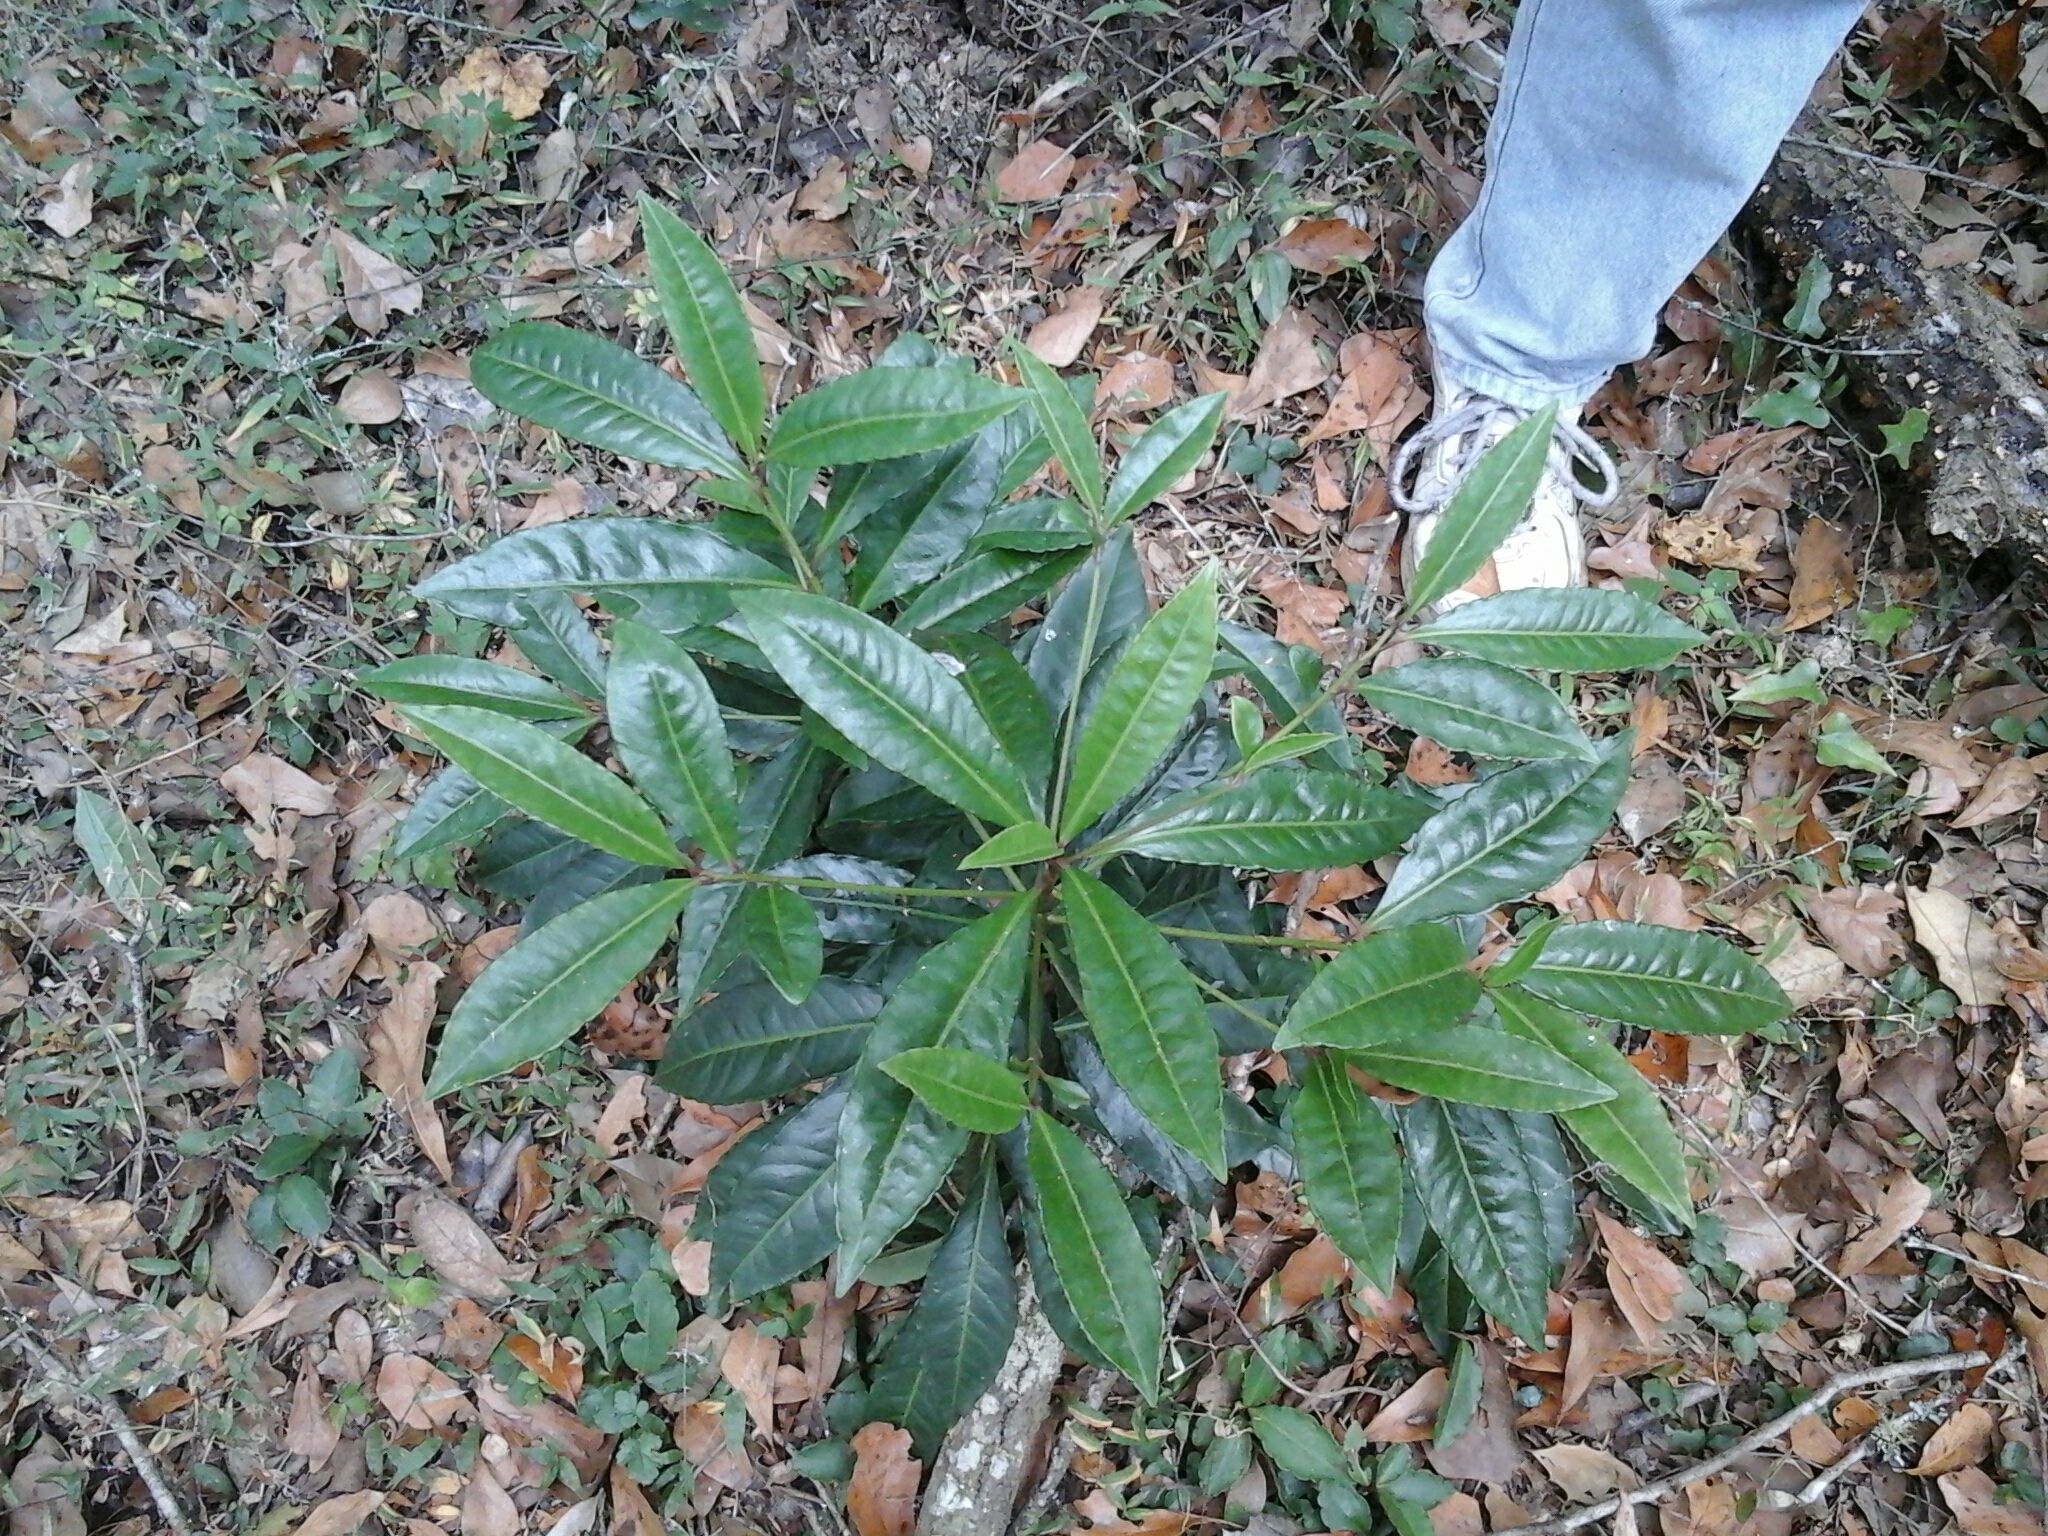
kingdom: Plantae
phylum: Tracheophyta
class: Magnoliopsida
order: Ericales
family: Primulaceae
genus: Ardisia
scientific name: Ardisia crenata
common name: Hen's eyes
